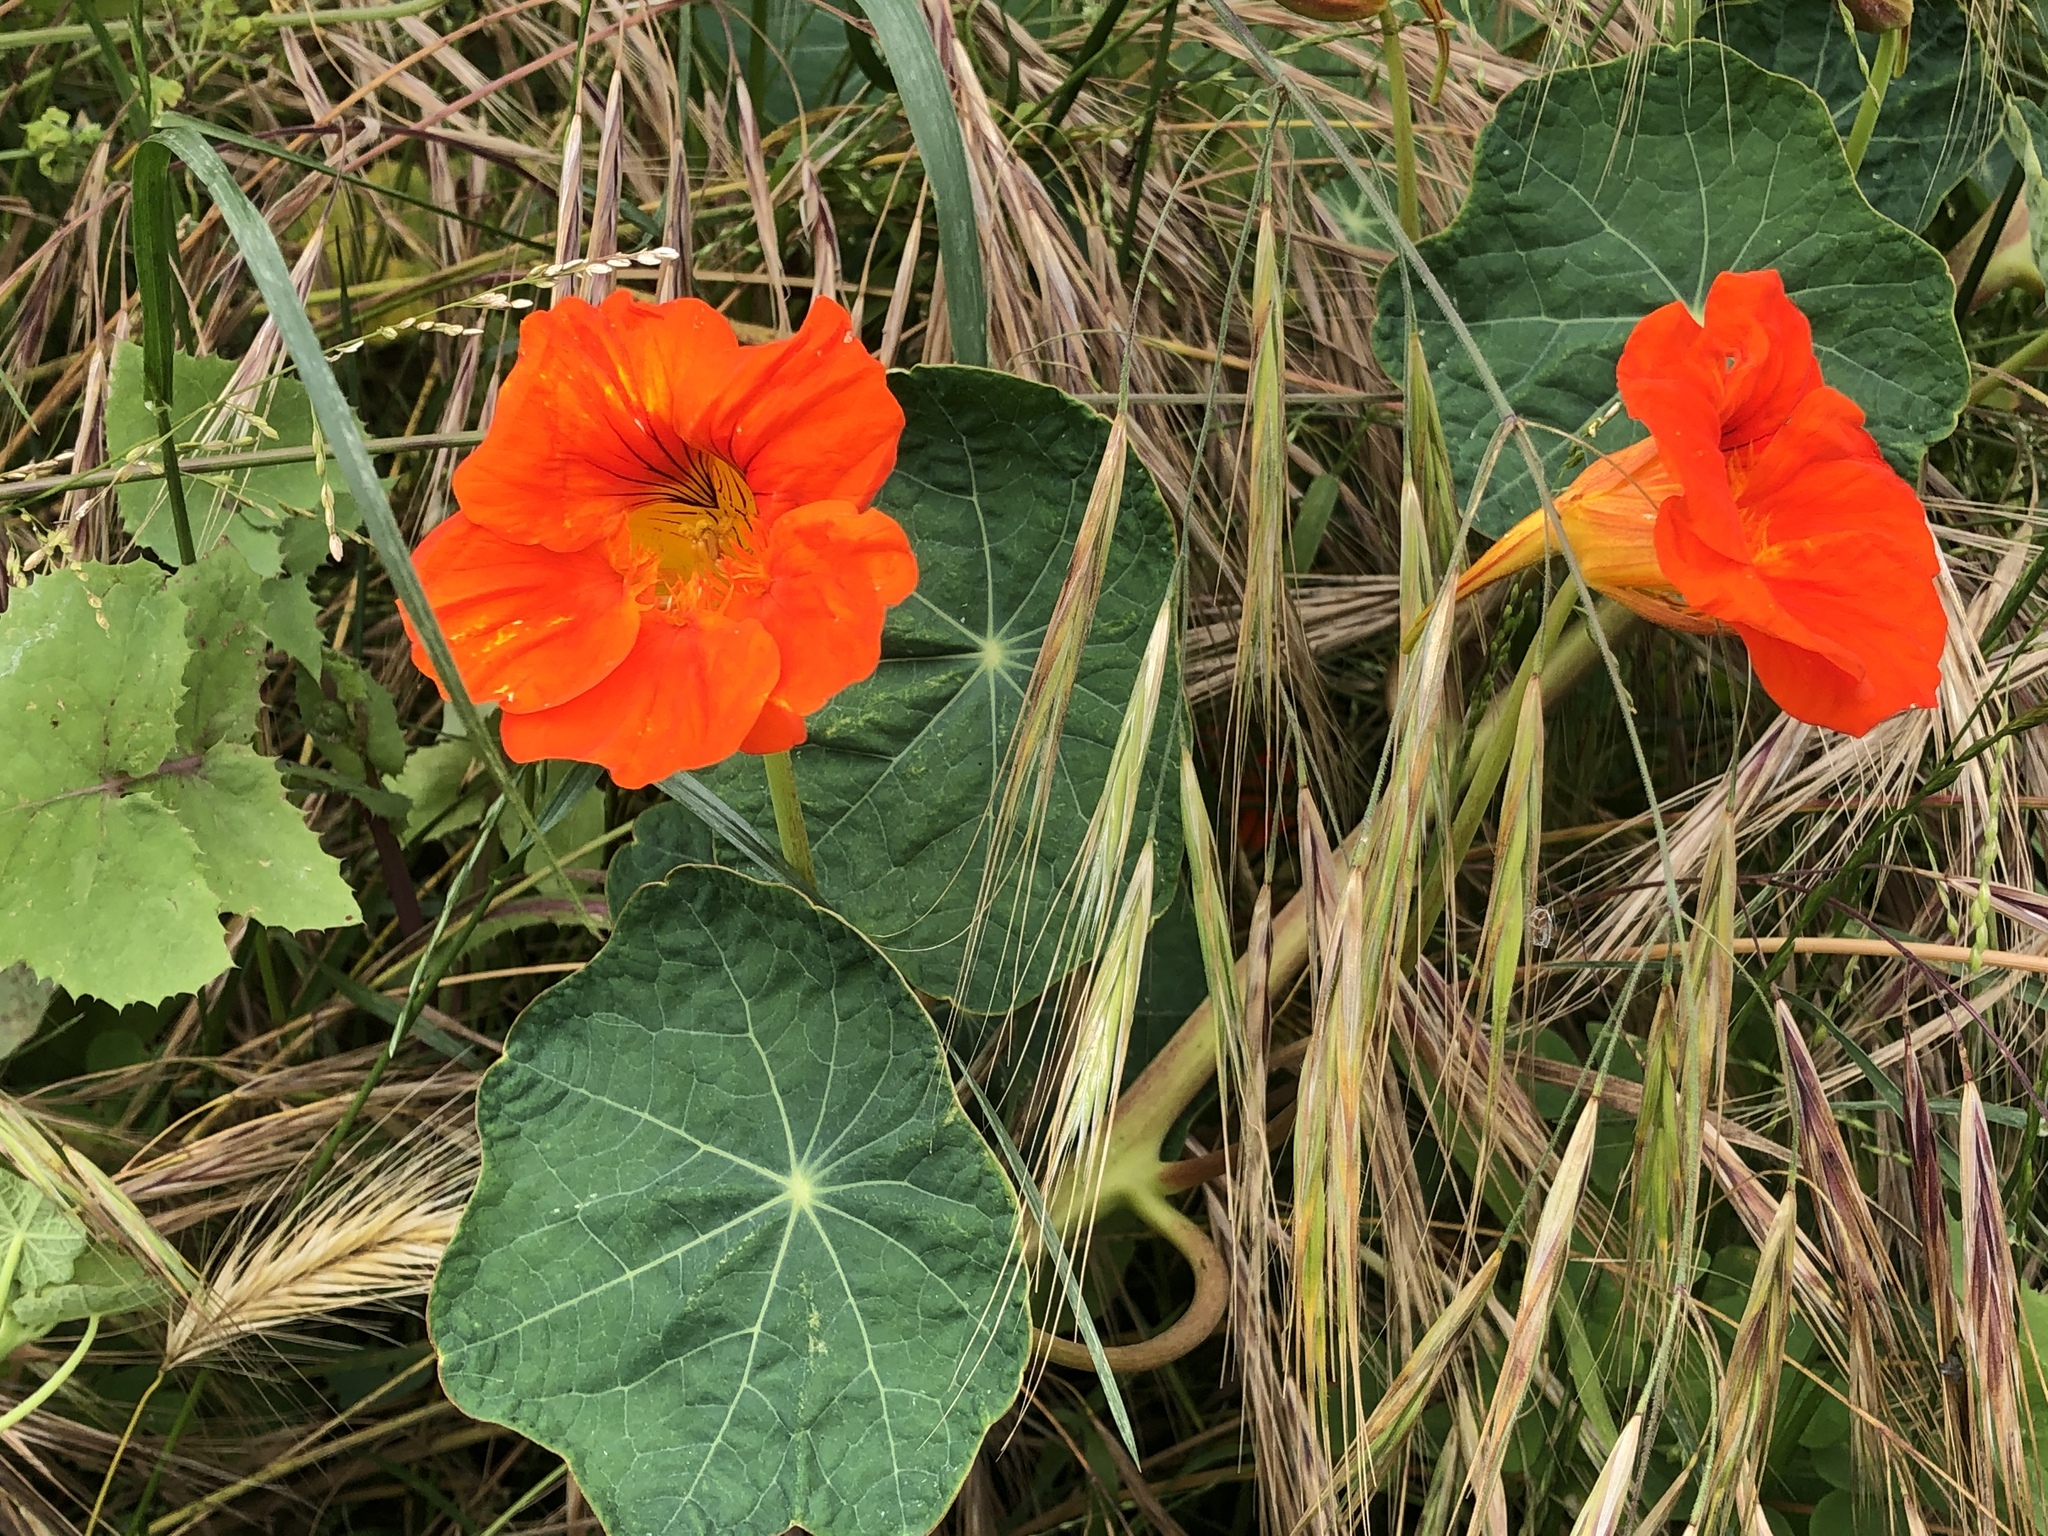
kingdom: Plantae
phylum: Tracheophyta
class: Magnoliopsida
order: Brassicales
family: Tropaeolaceae
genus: Tropaeolum
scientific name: Tropaeolum majus
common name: Nasturtium
